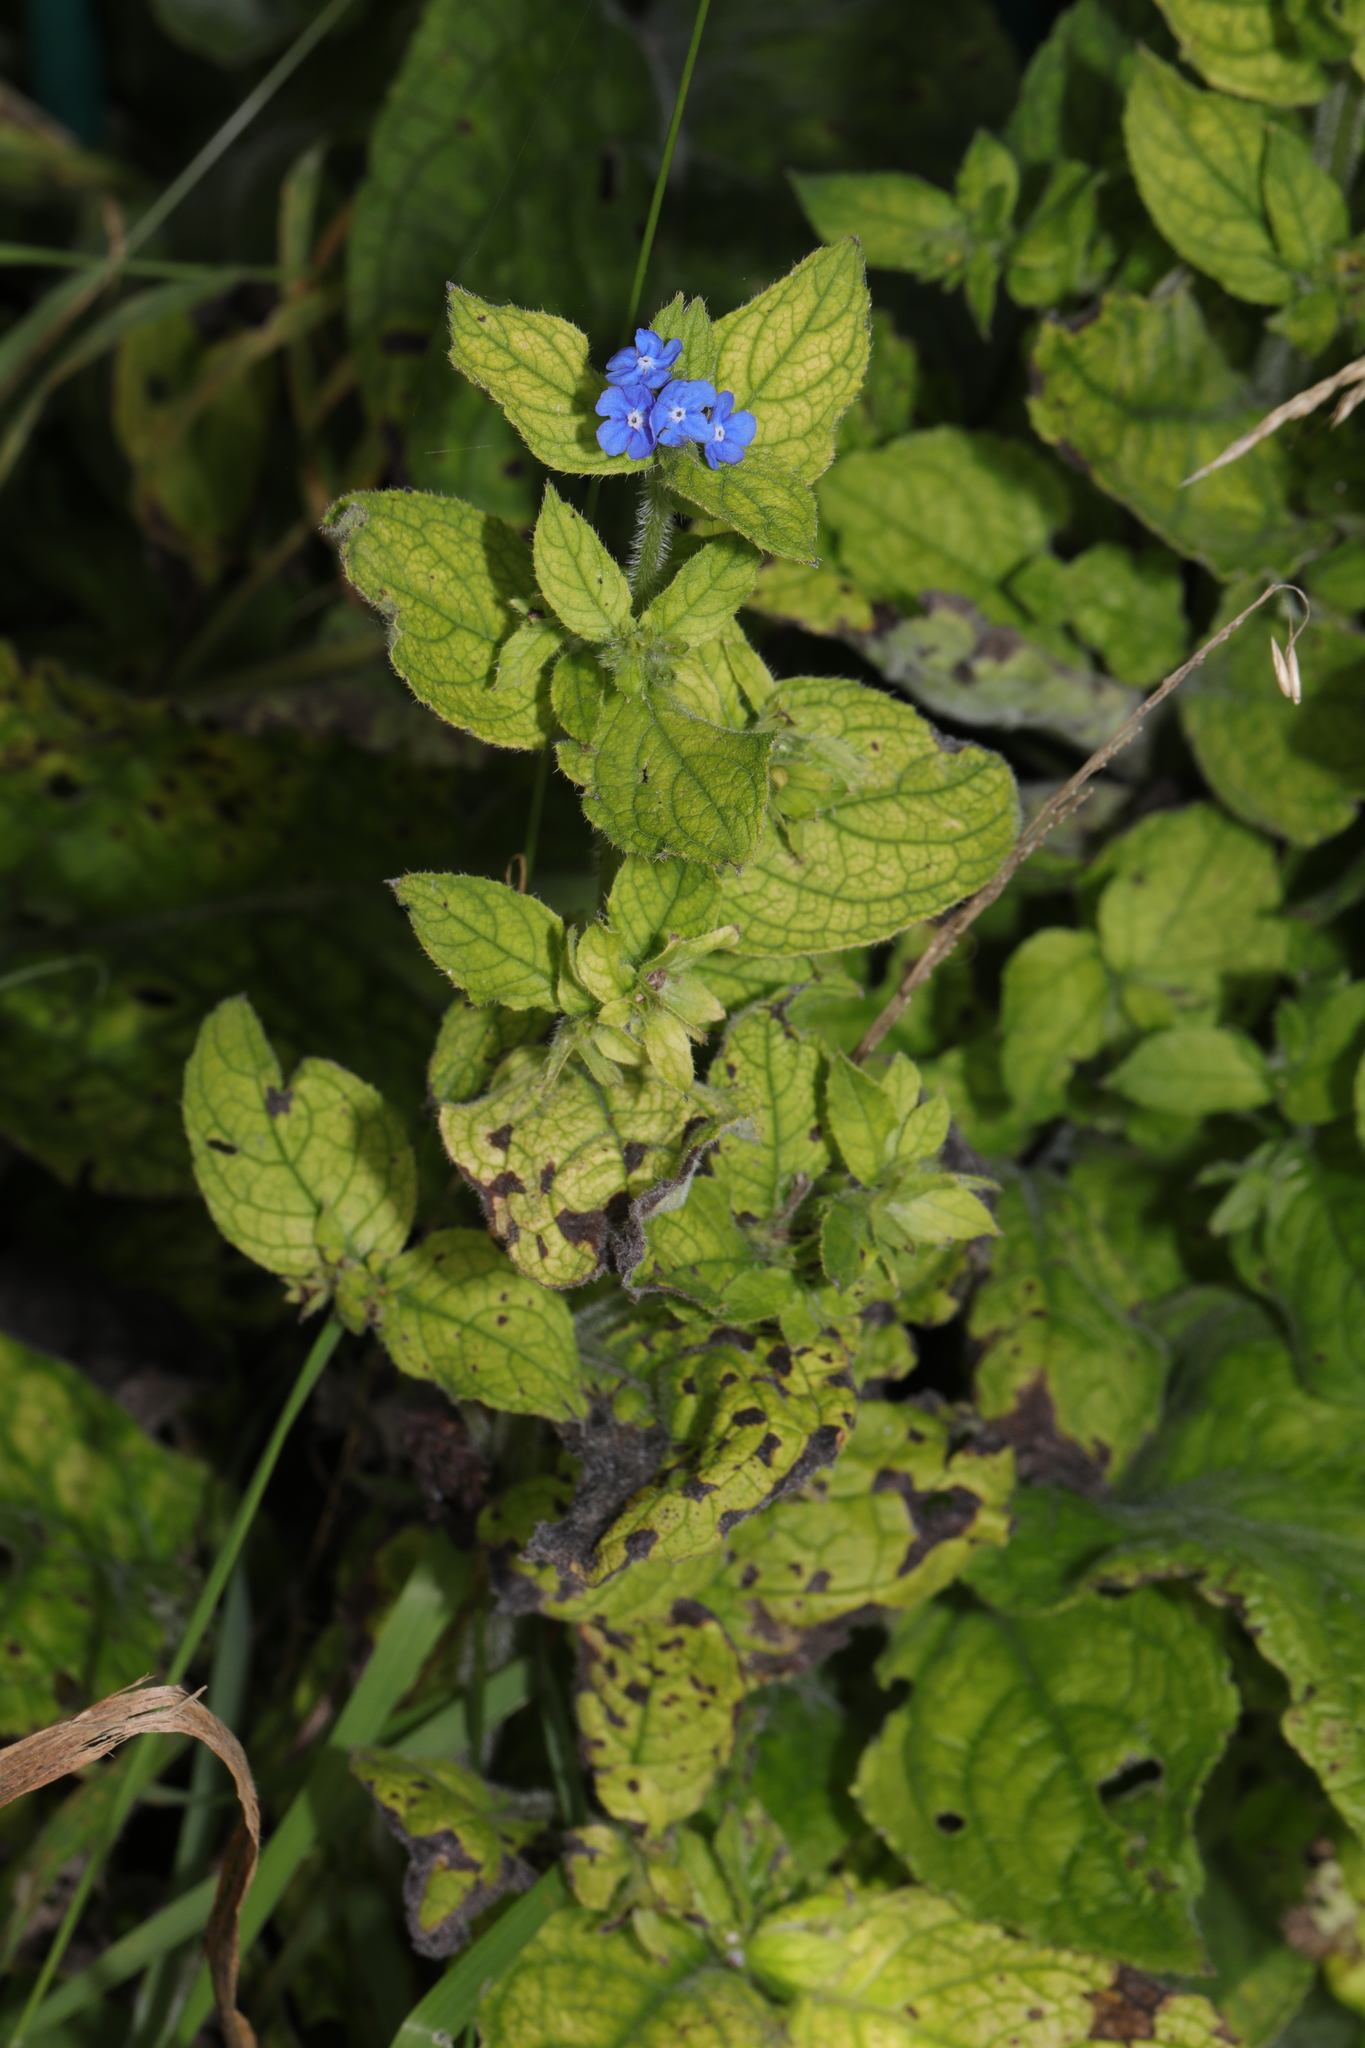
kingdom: Plantae
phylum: Tracheophyta
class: Magnoliopsida
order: Boraginales
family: Boraginaceae
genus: Pentaglottis
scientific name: Pentaglottis sempervirens
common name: Green alkanet
